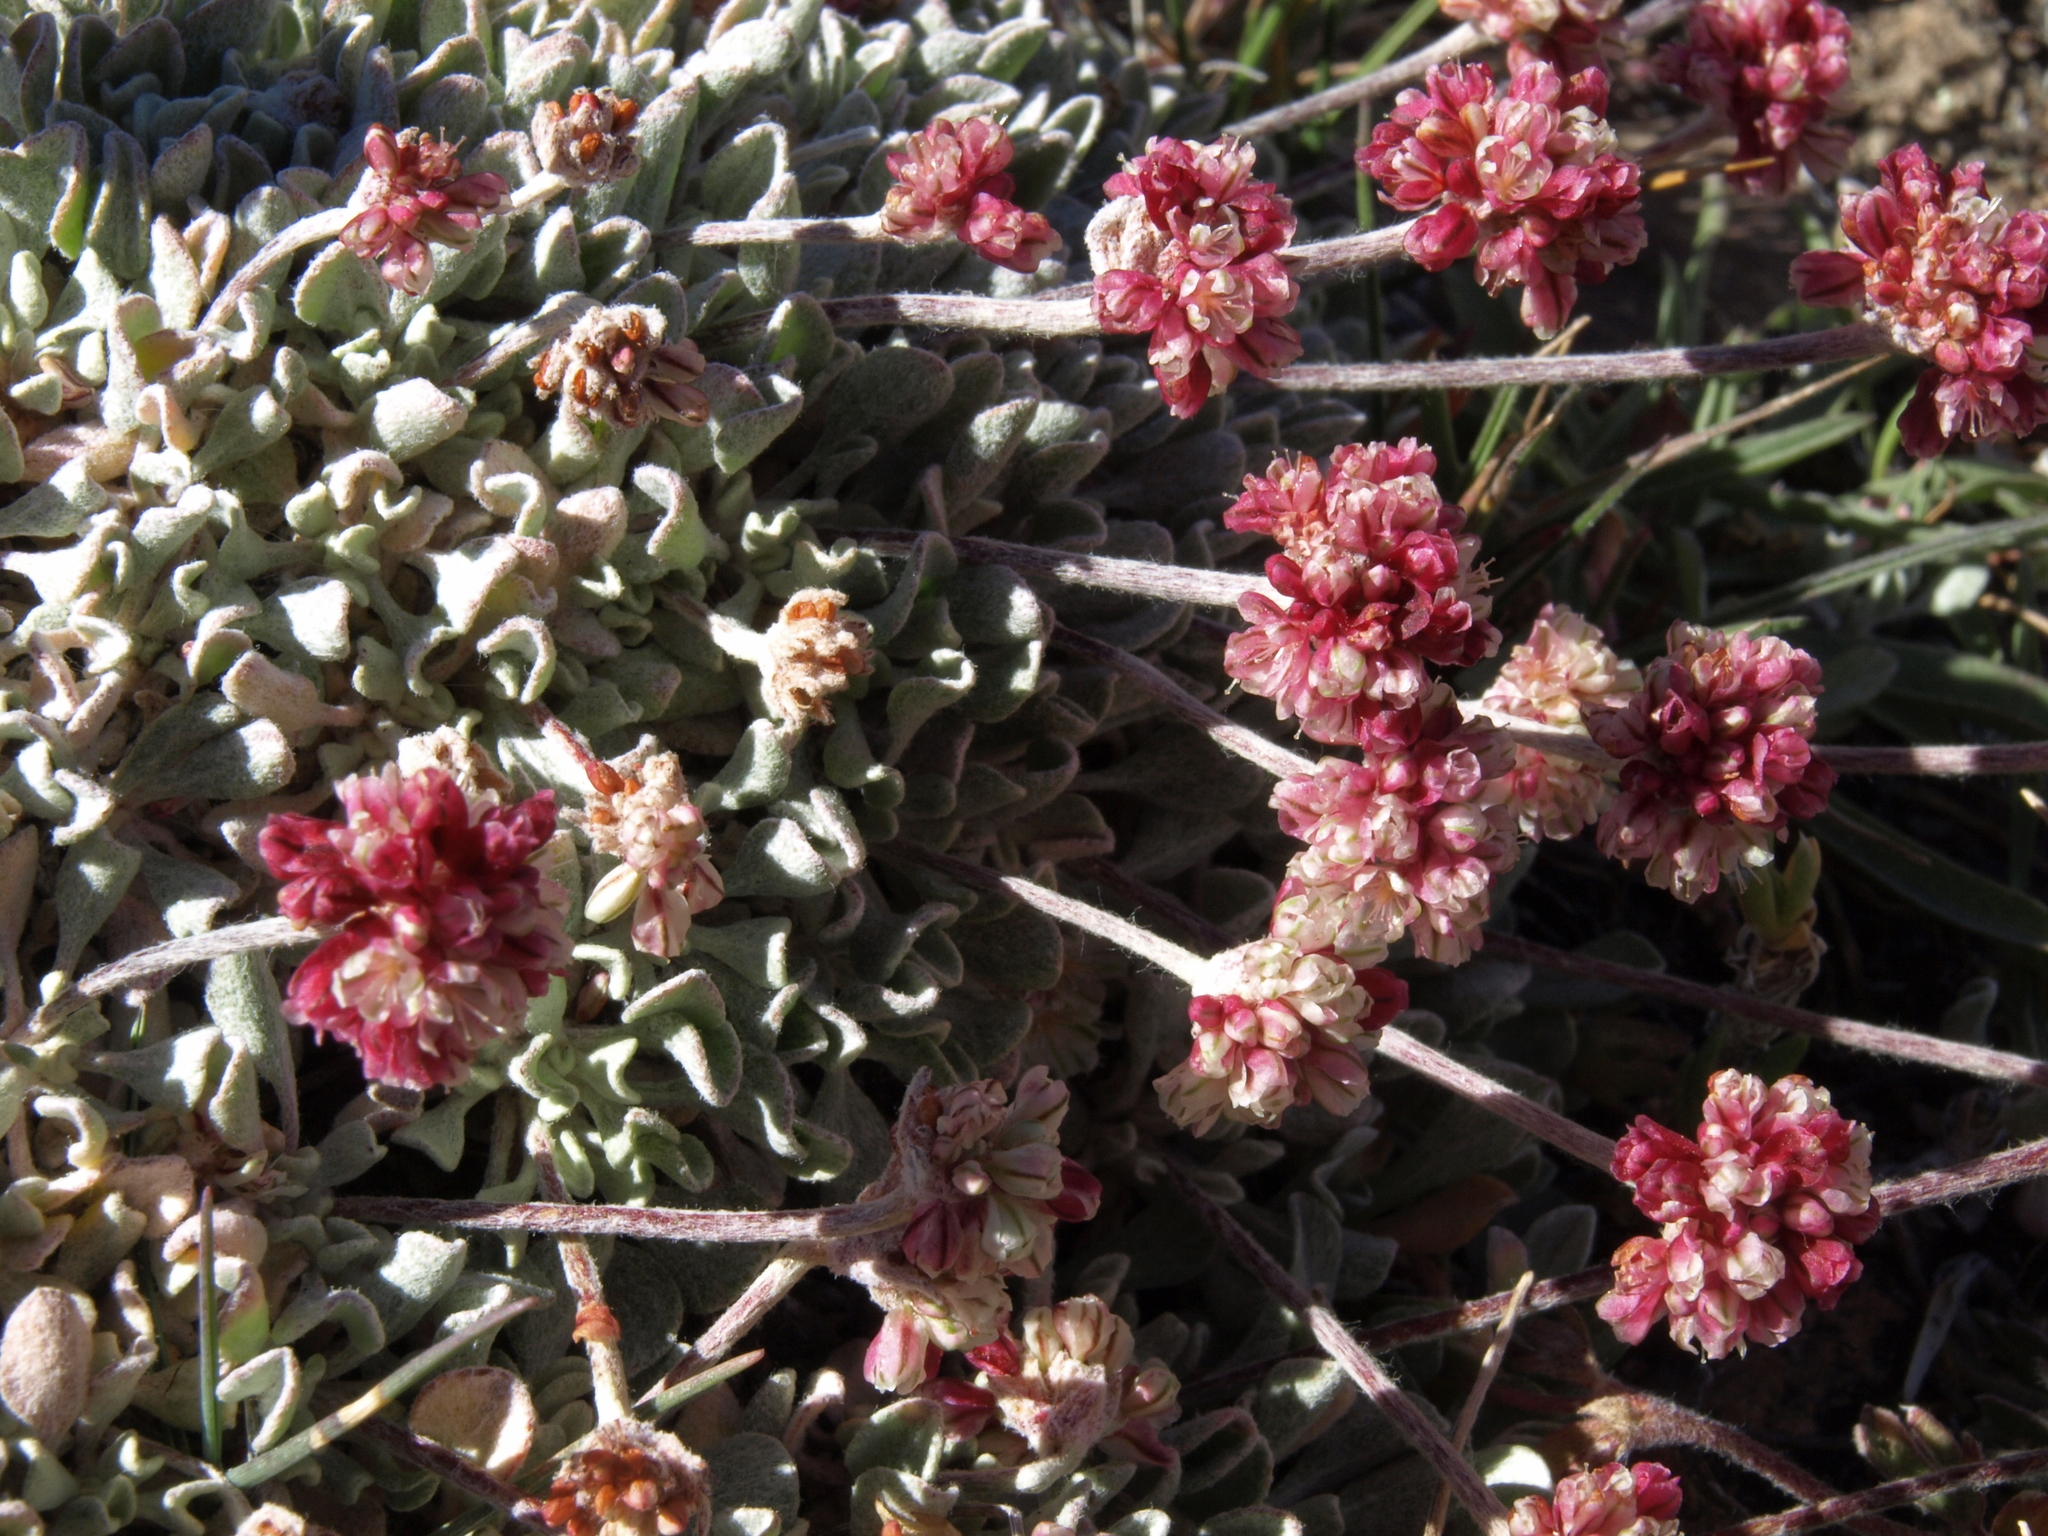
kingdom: Plantae
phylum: Tracheophyta
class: Magnoliopsida
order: Caryophyllales
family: Polygonaceae
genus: Eriogonum
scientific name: Eriogonum ovalifolium
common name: Cushion buckwheat
